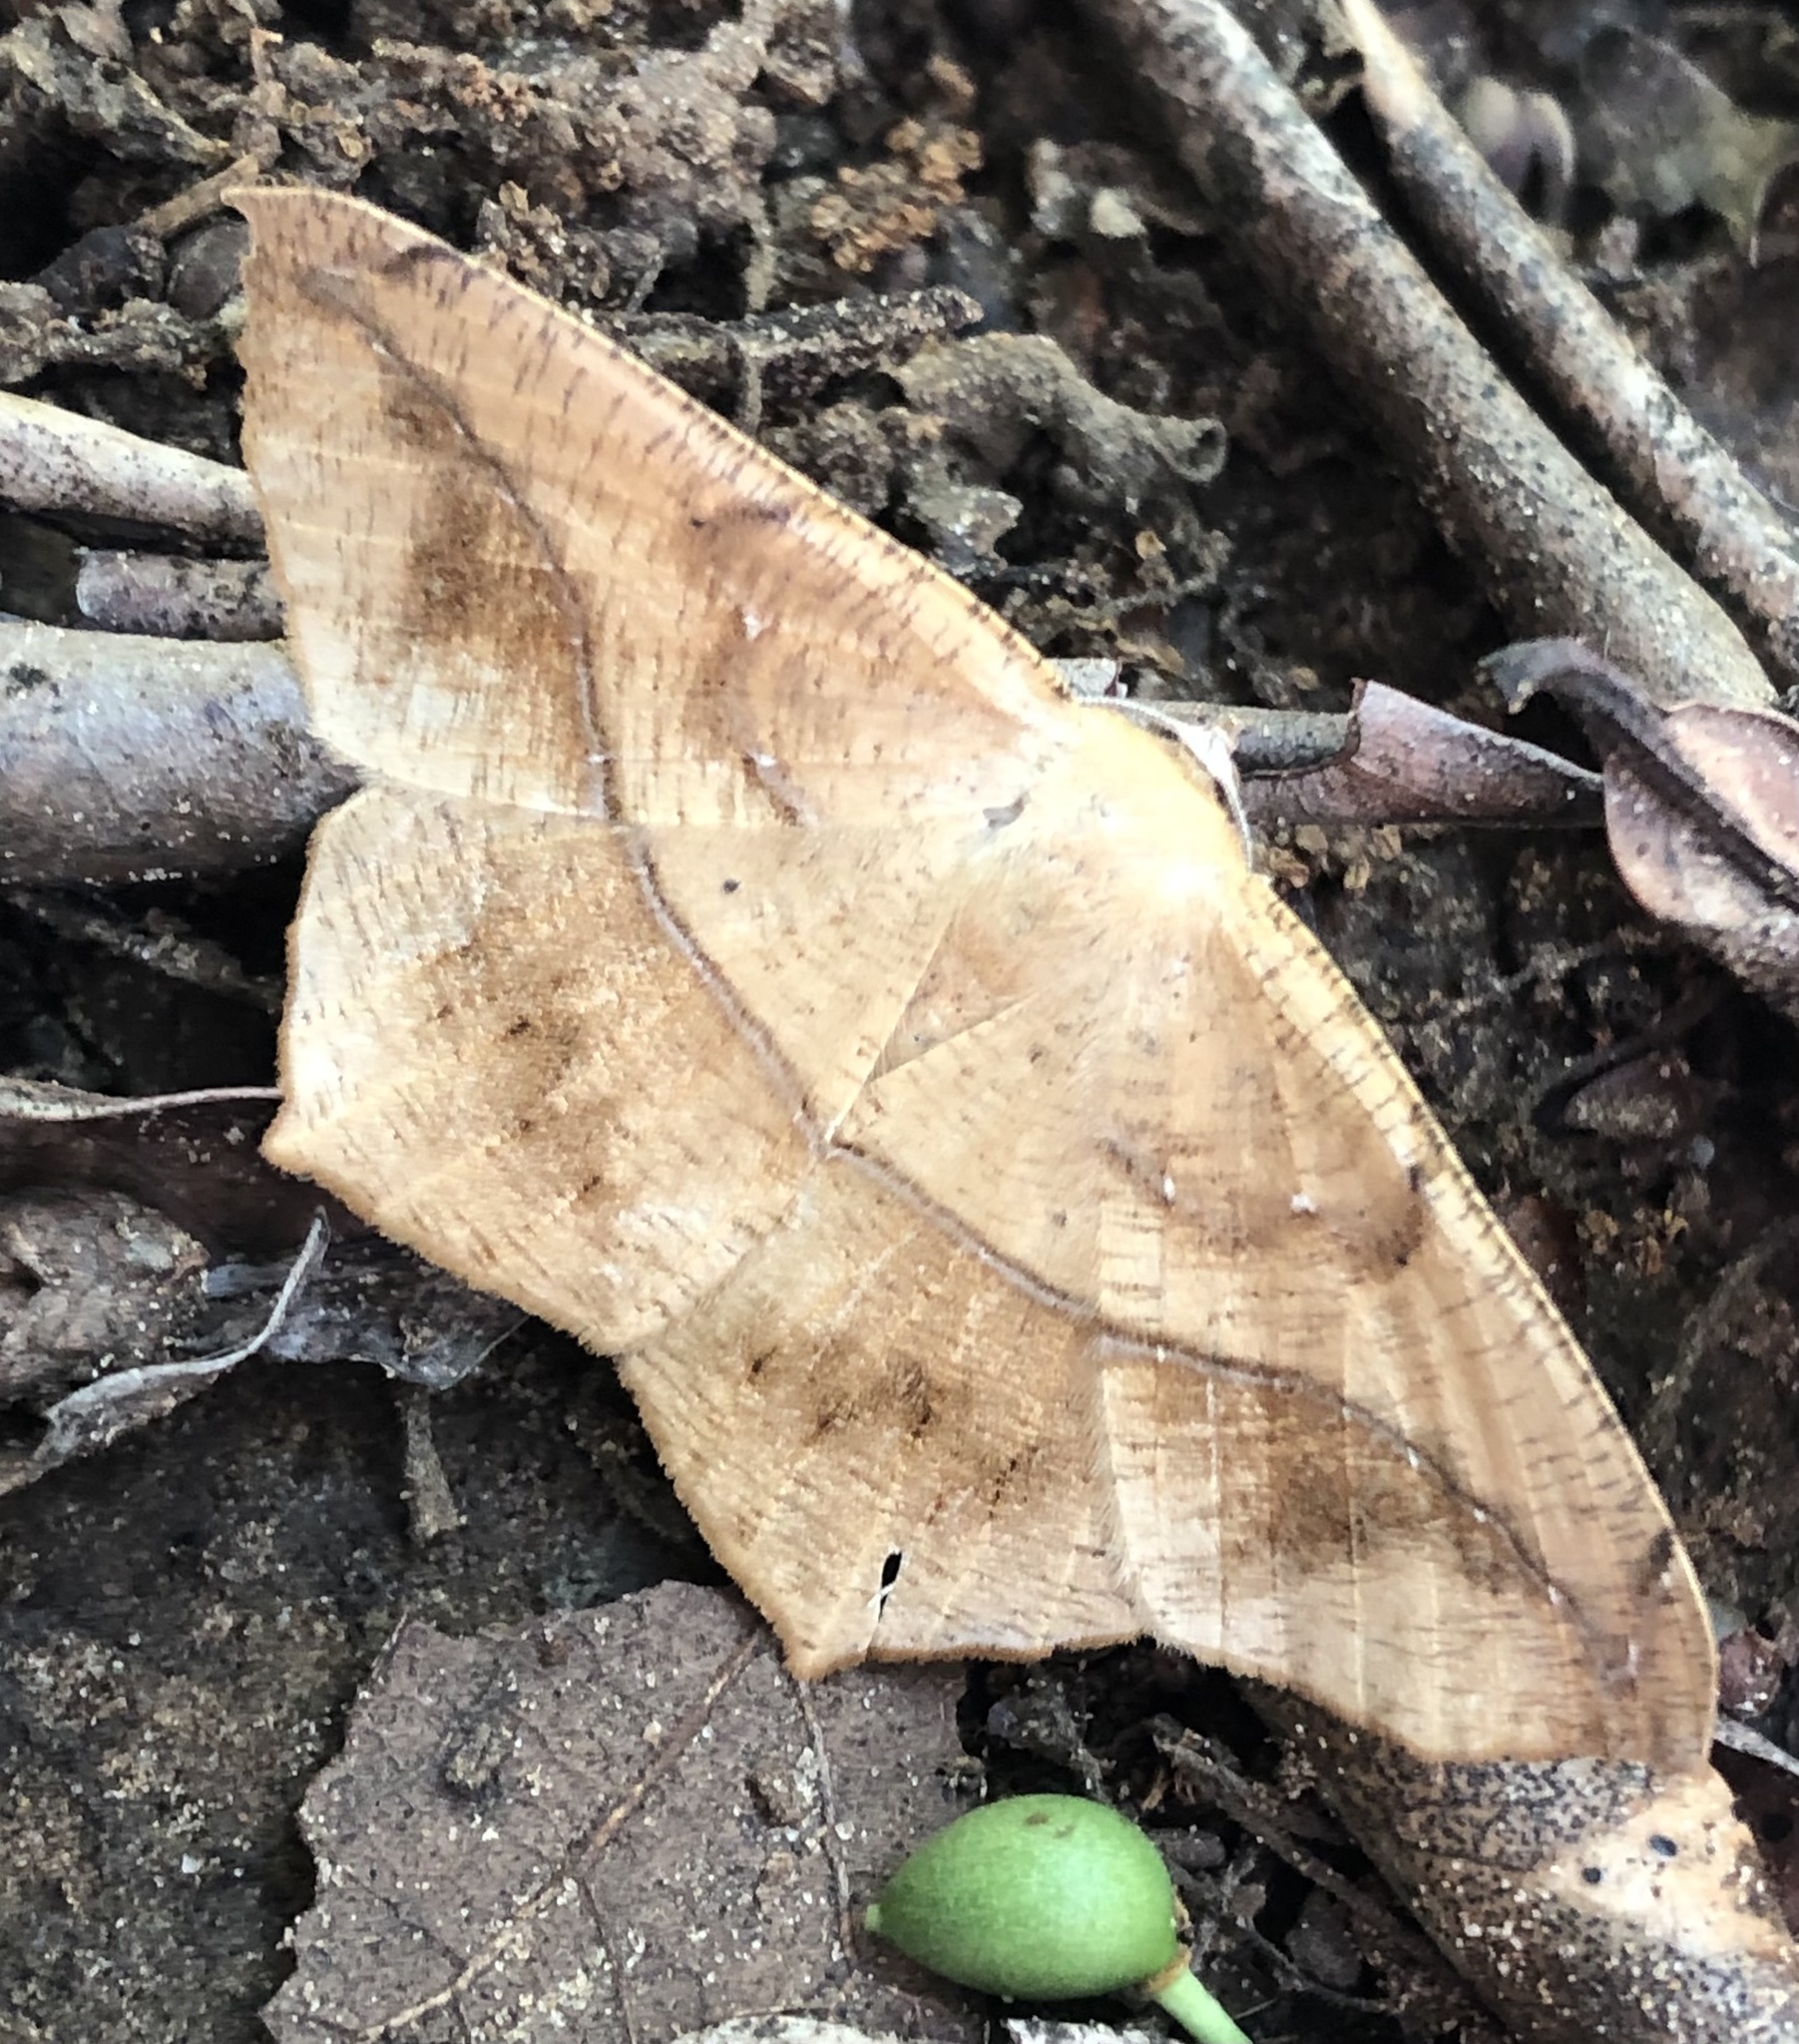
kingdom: Animalia
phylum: Arthropoda
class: Insecta
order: Lepidoptera
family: Geometridae
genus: Prochoerodes
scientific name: Prochoerodes lineola
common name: Large maple spanworm
